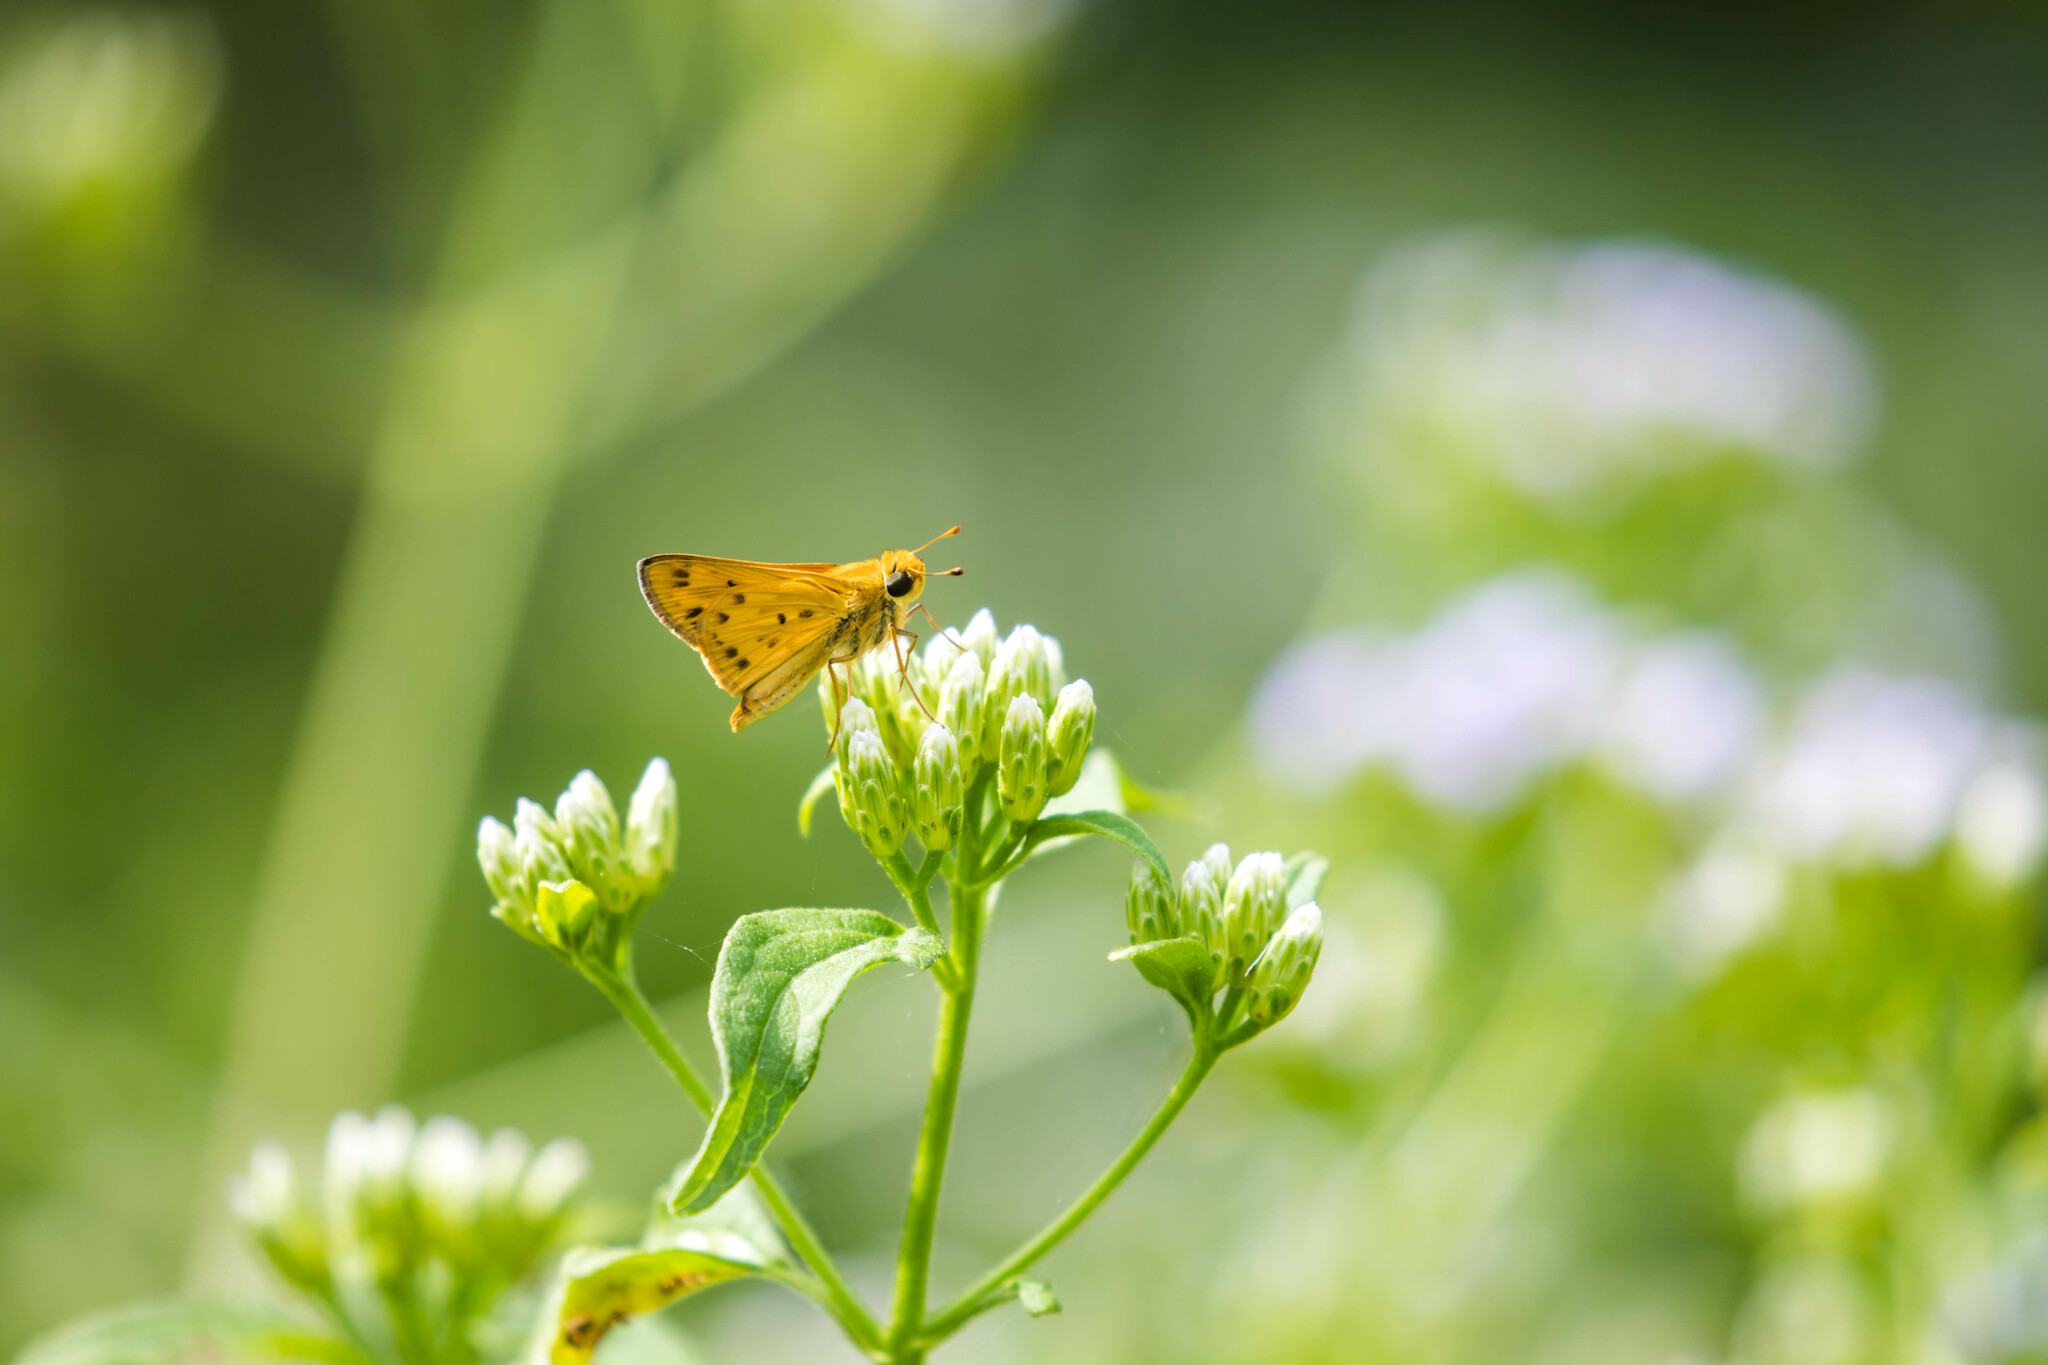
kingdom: Animalia
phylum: Arthropoda
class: Insecta
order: Lepidoptera
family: Hesperiidae
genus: Hylephila
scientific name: Hylephila phyleus
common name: Fiery skipper
